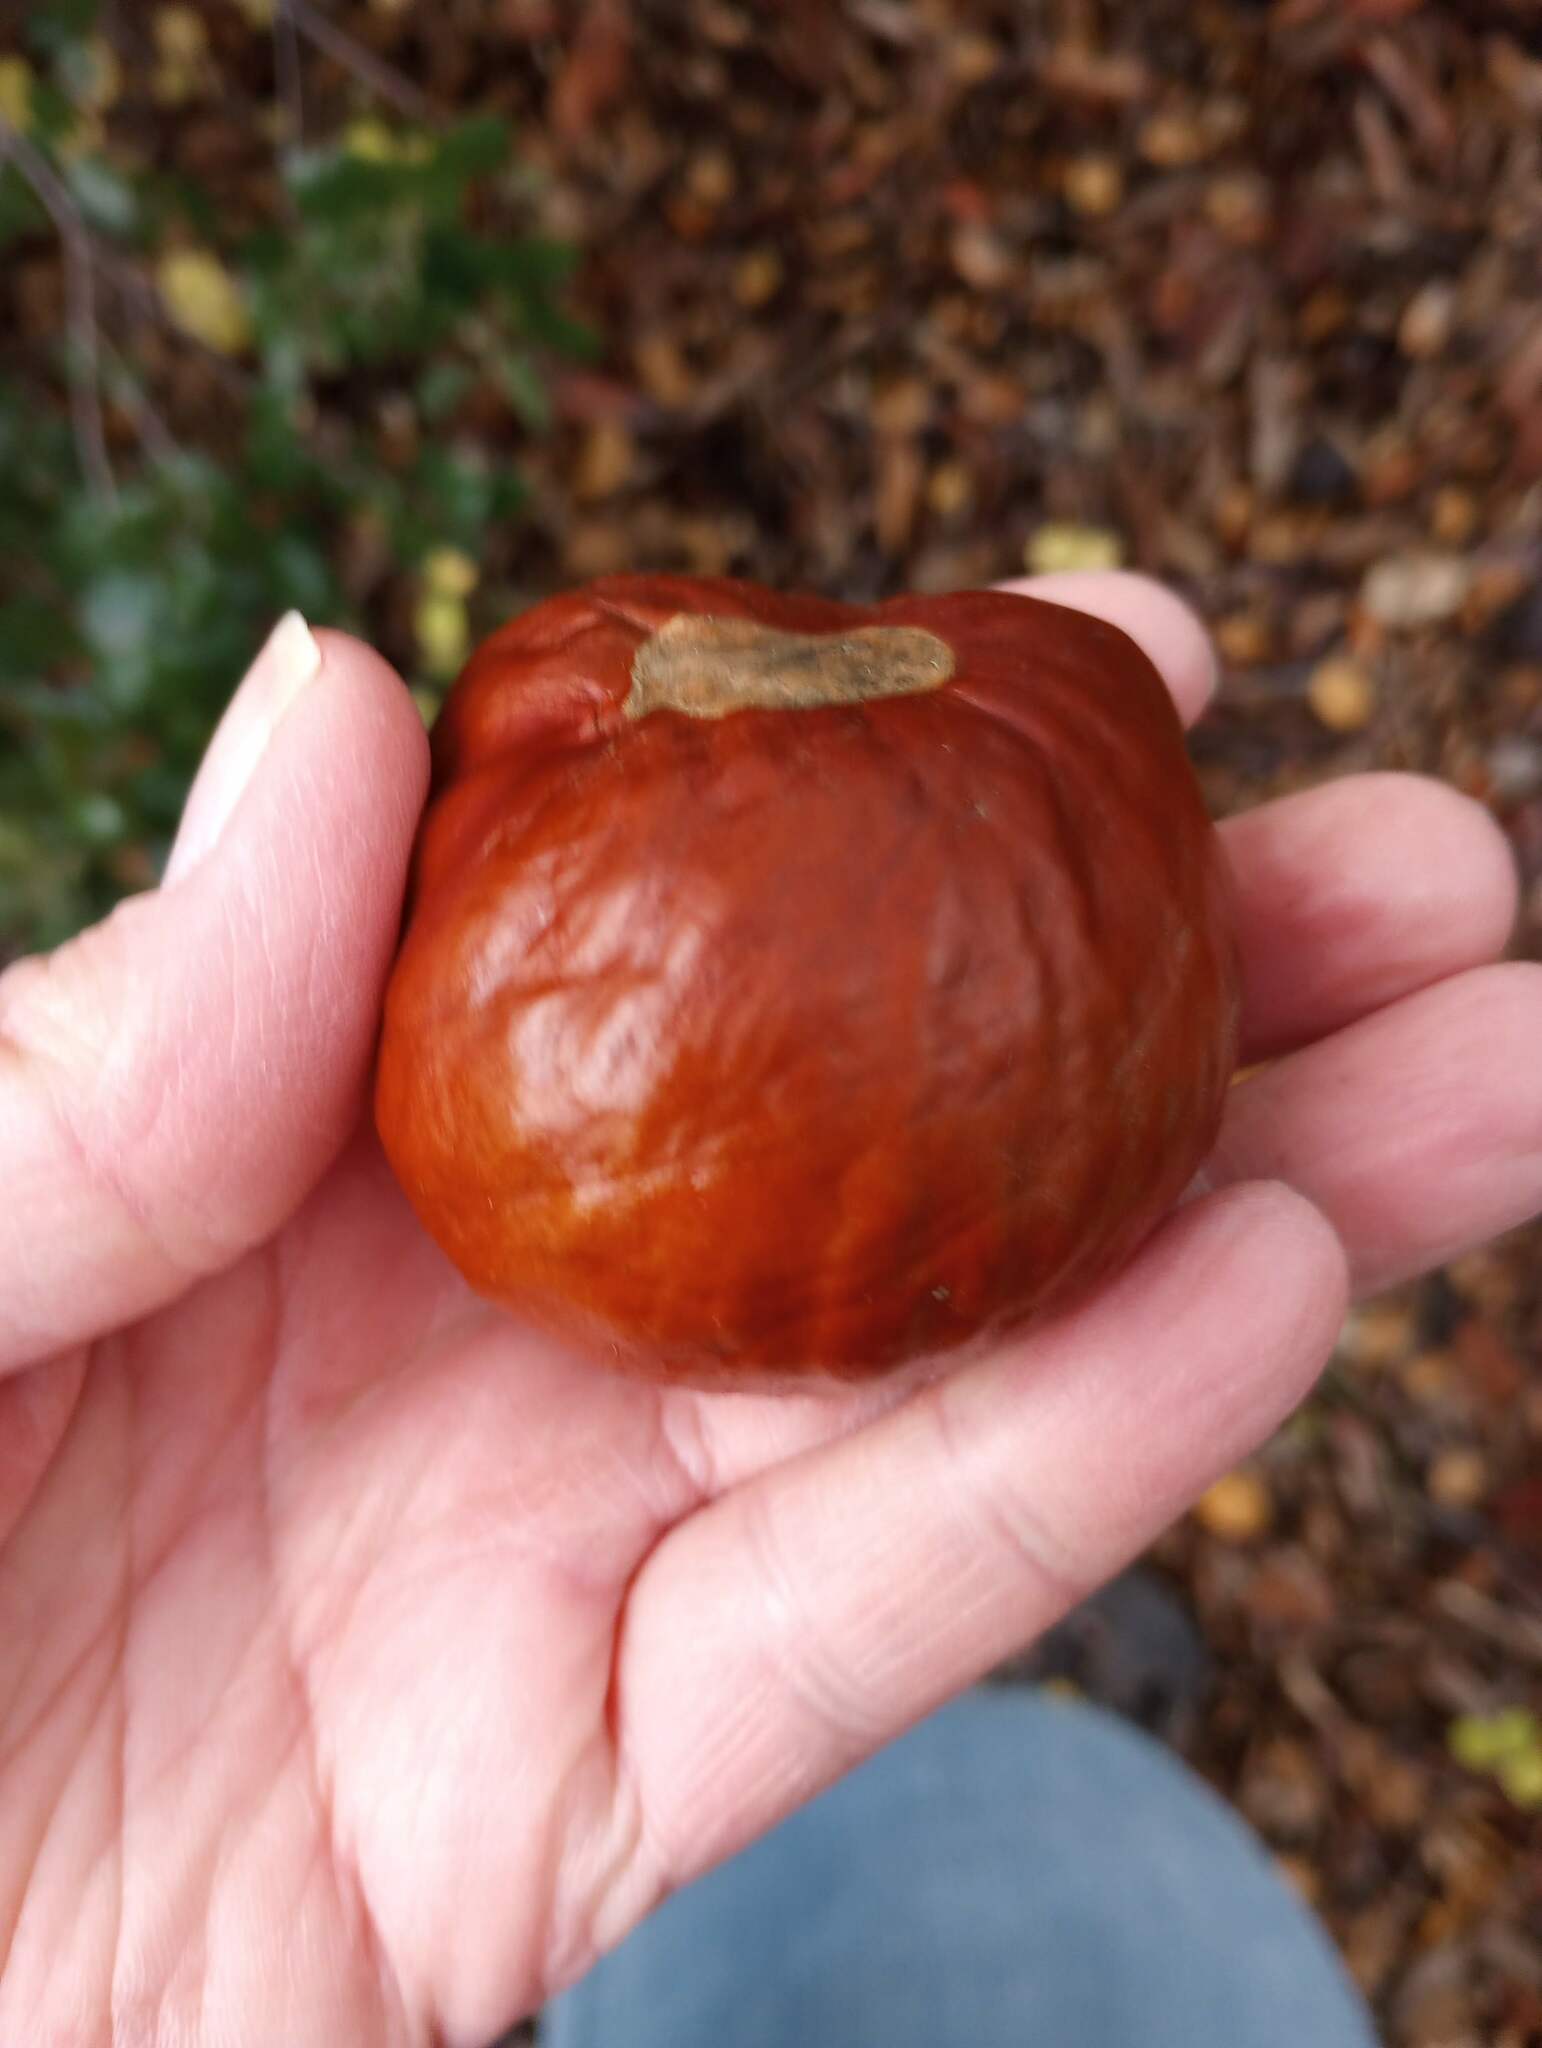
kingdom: Plantae
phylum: Tracheophyta
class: Magnoliopsida
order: Sapindales
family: Sapindaceae
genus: Aesculus
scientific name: Aesculus californica
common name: California buckeye
